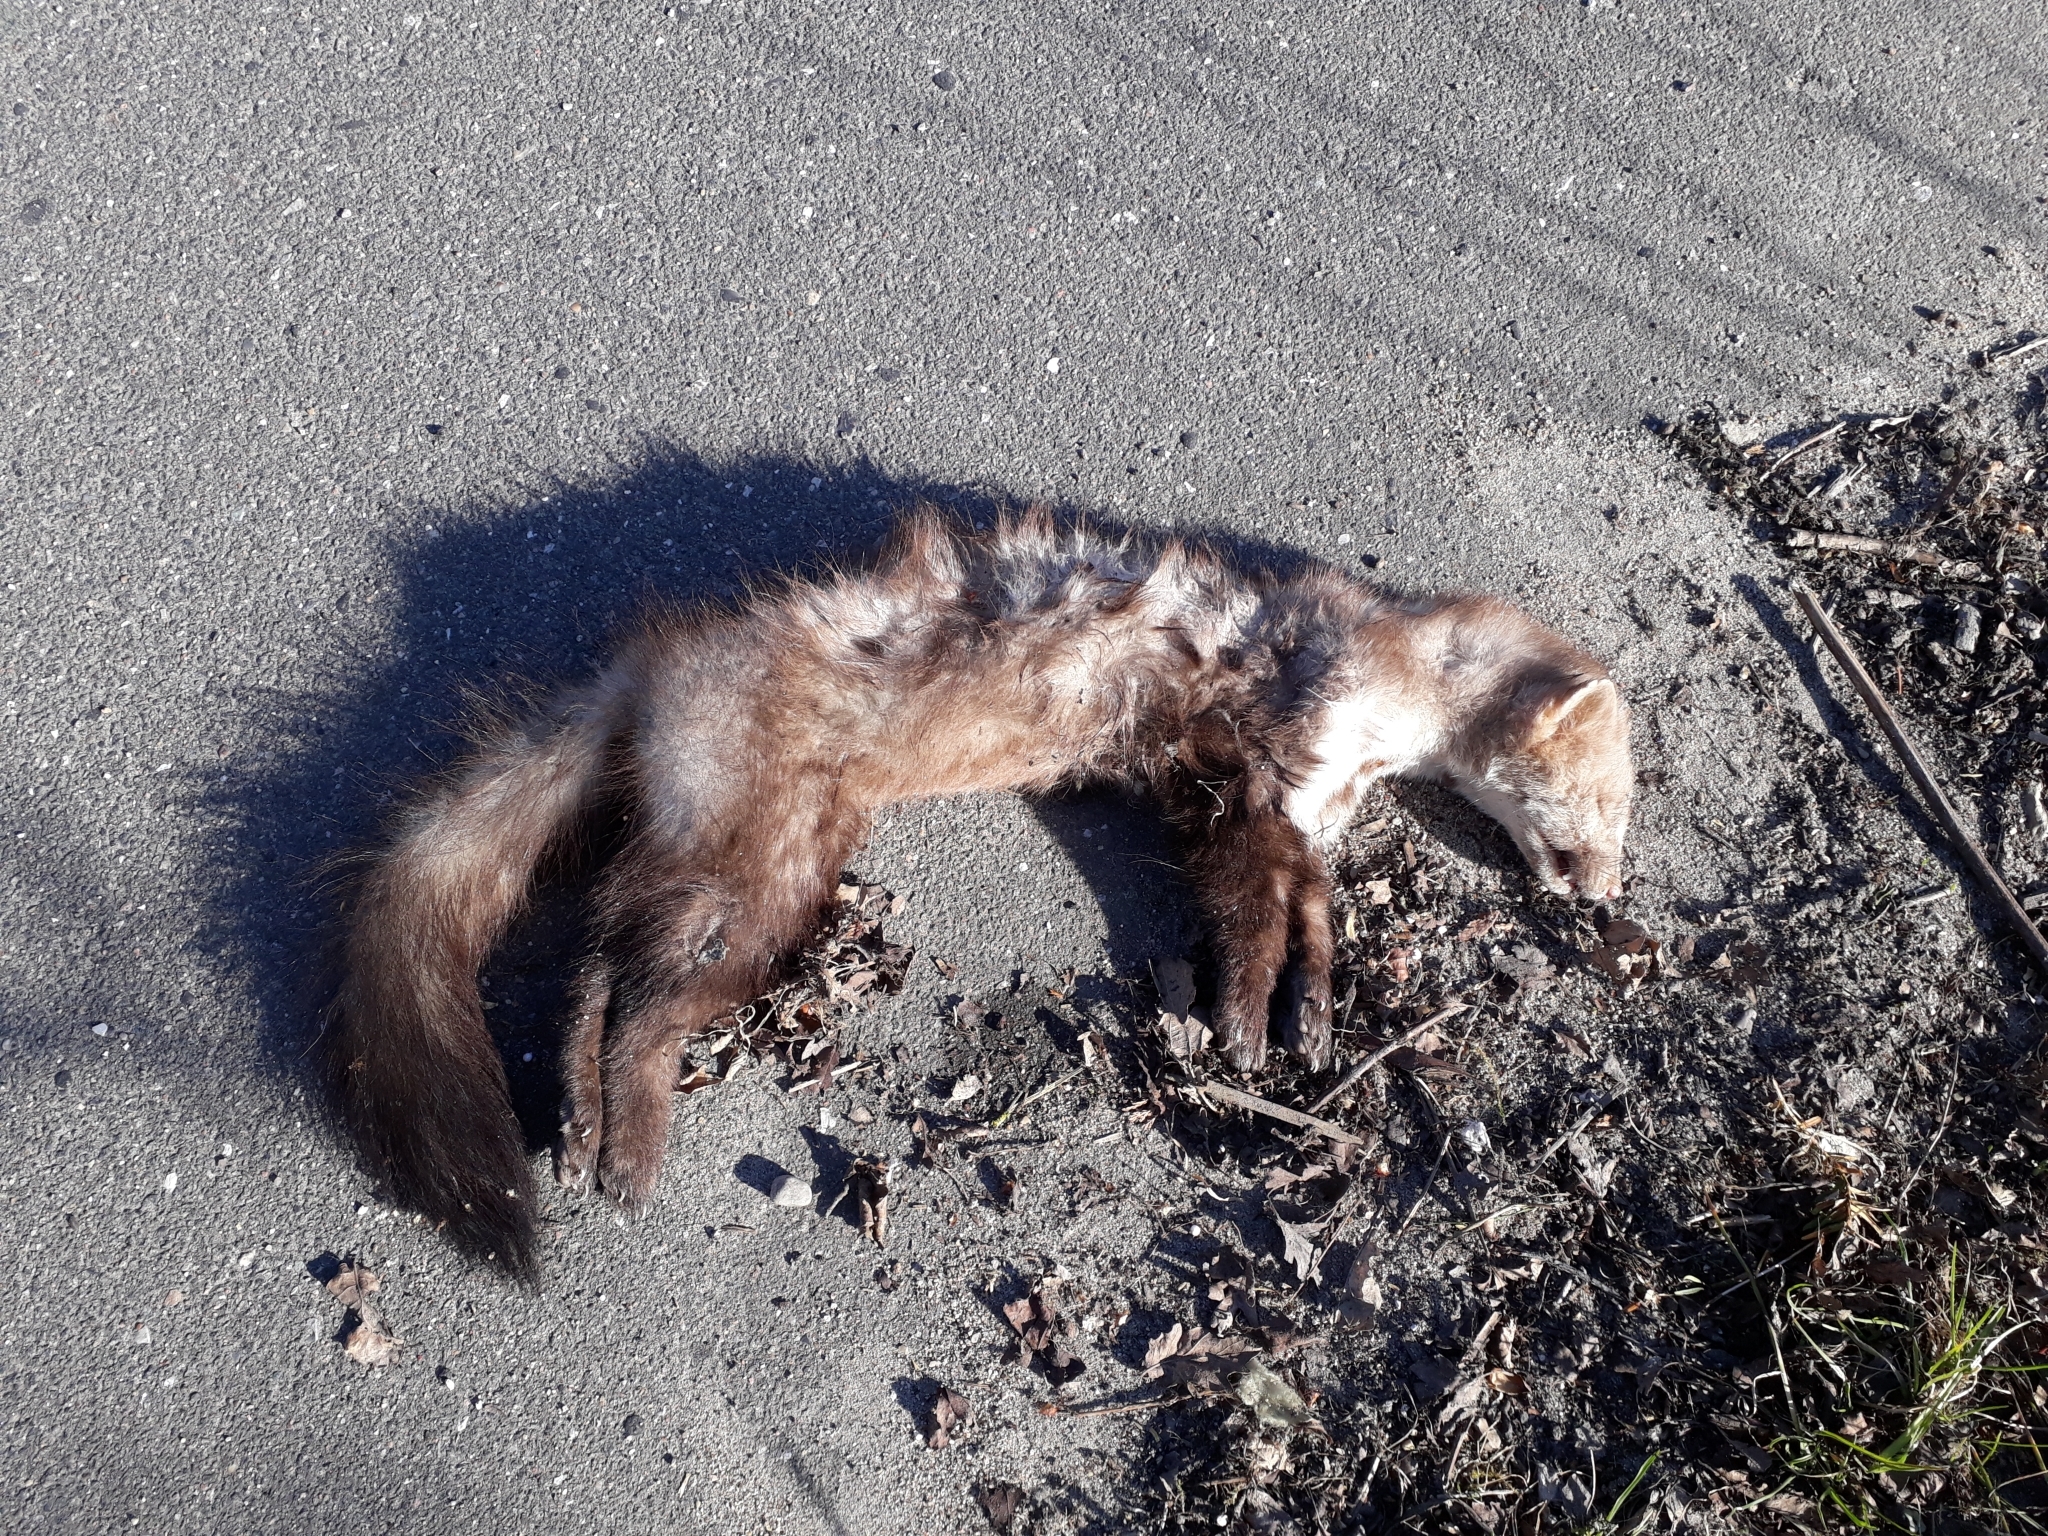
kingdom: Animalia
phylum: Chordata
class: Mammalia
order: Carnivora
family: Mustelidae
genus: Martes
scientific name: Martes foina
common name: Beech marten
